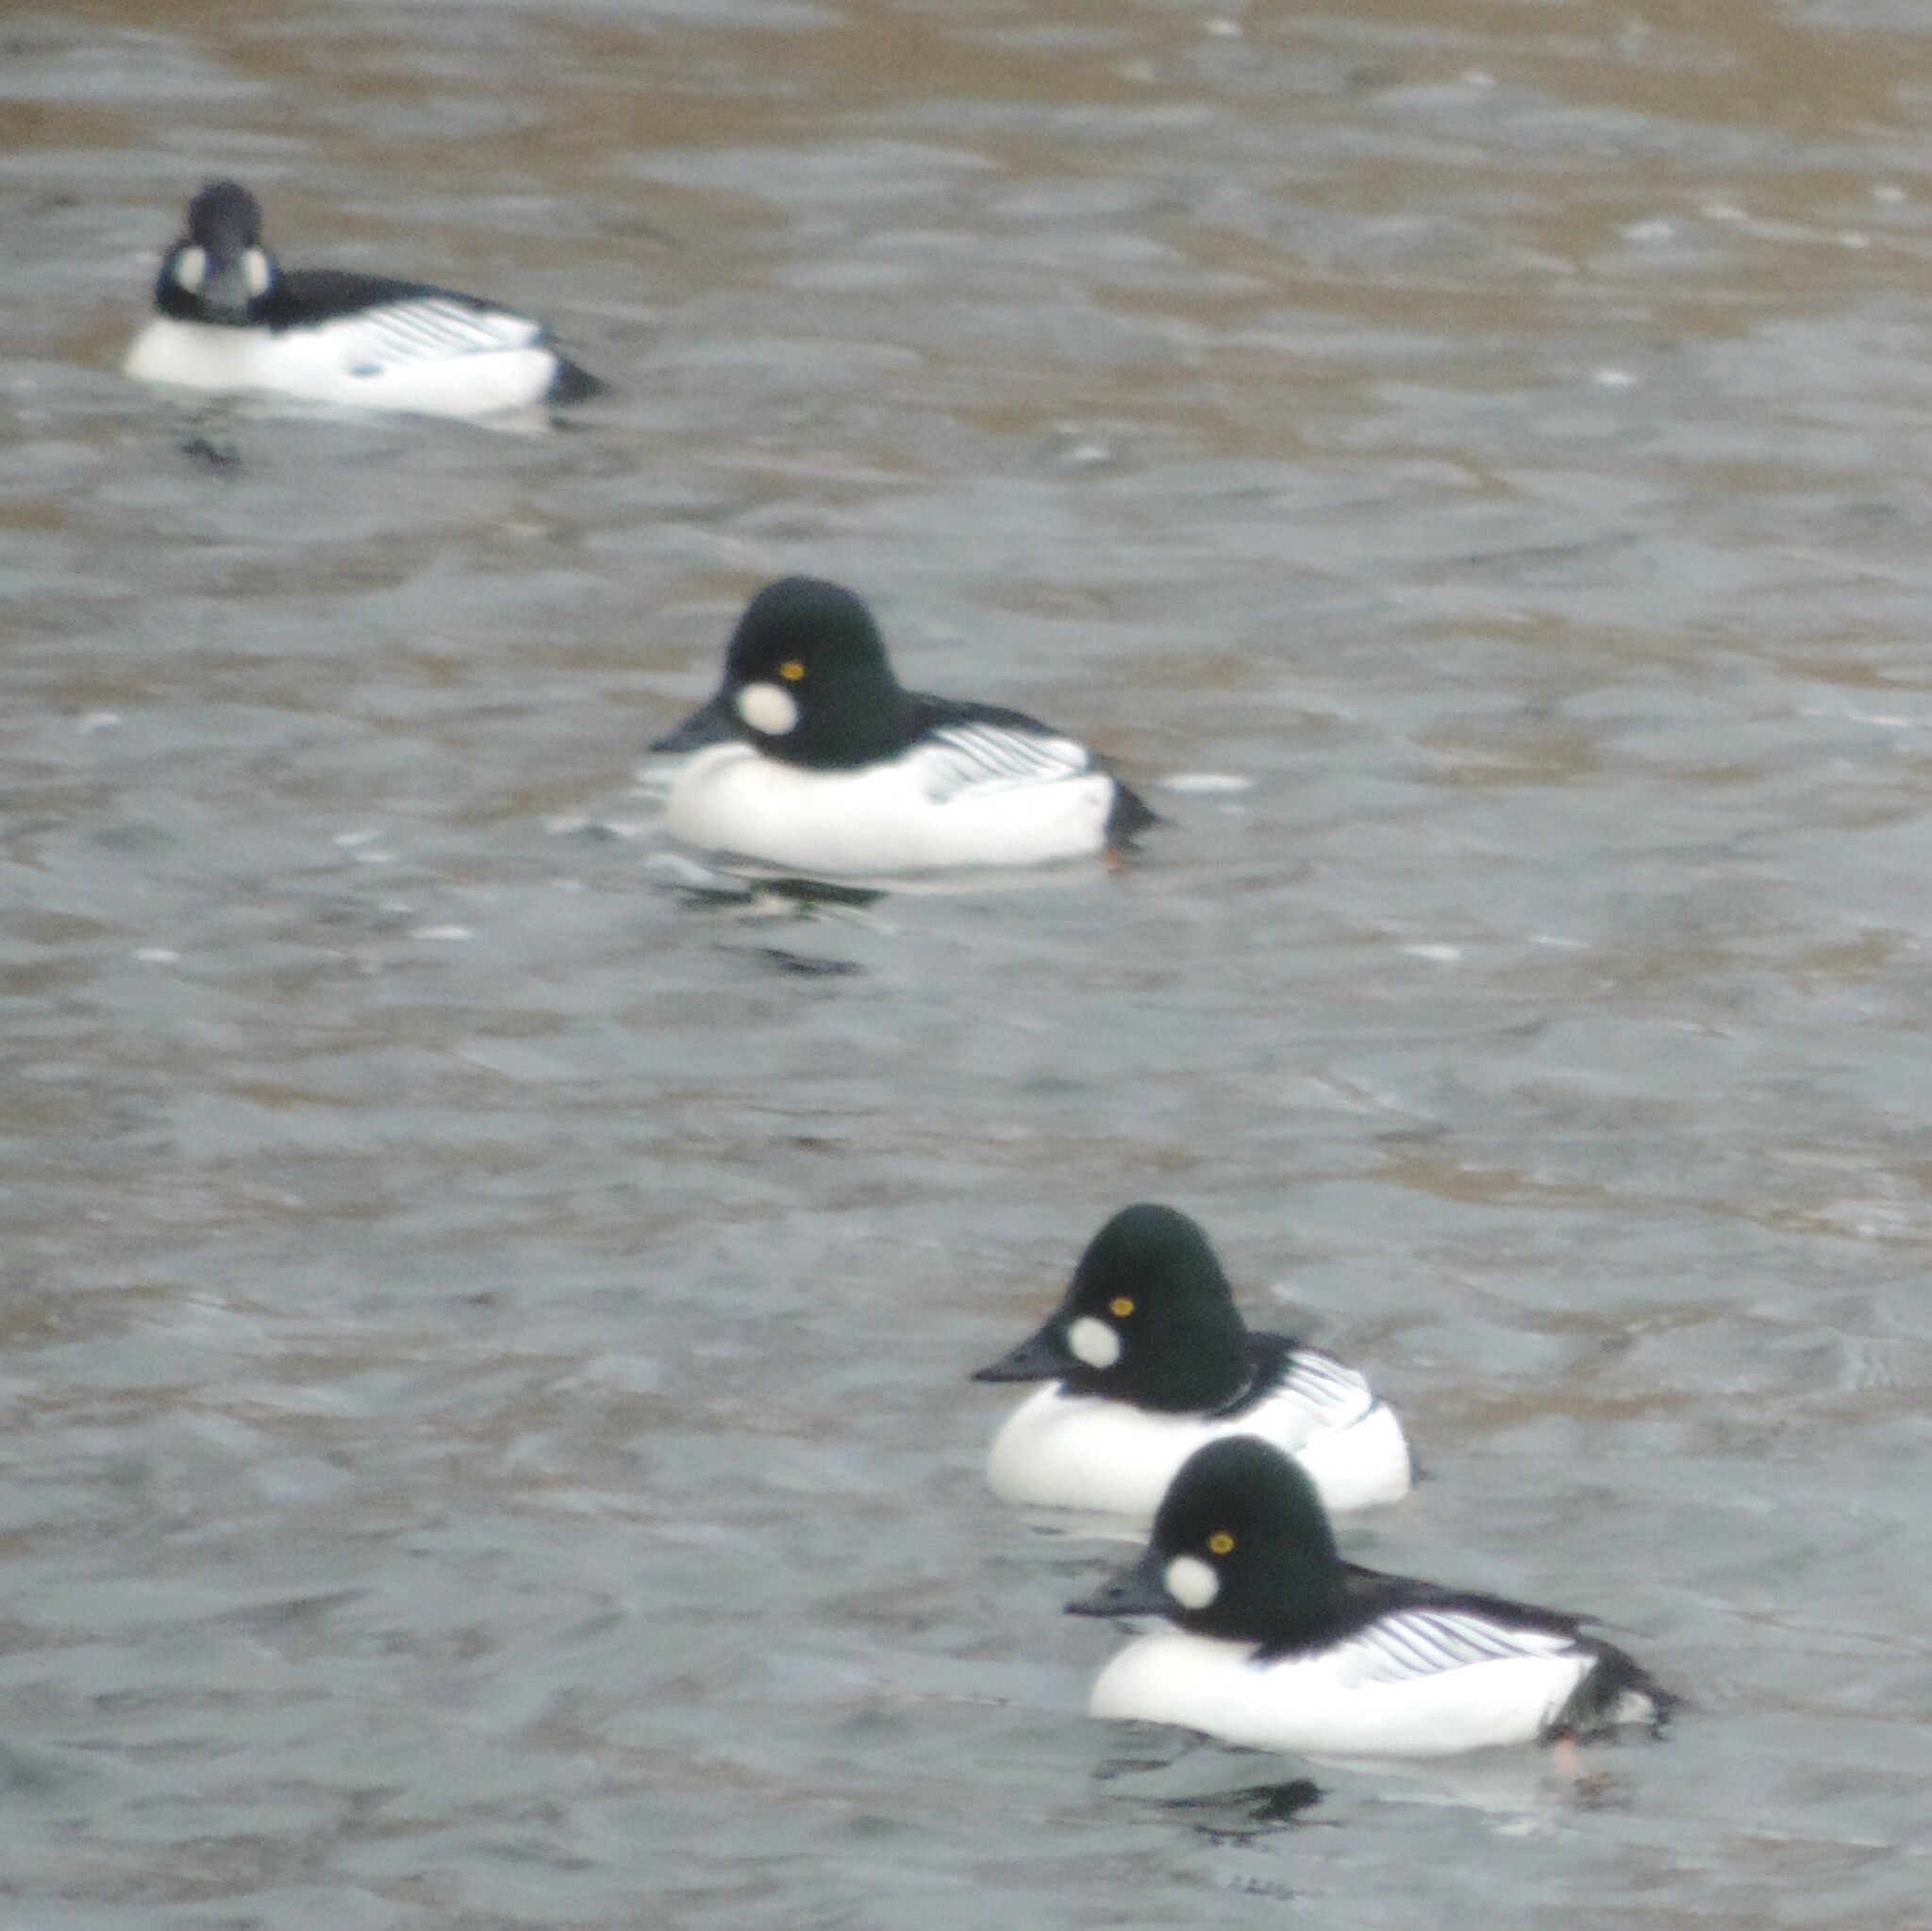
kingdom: Animalia
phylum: Chordata
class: Aves
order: Anseriformes
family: Anatidae
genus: Bucephala
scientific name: Bucephala clangula
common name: Common goldeneye
